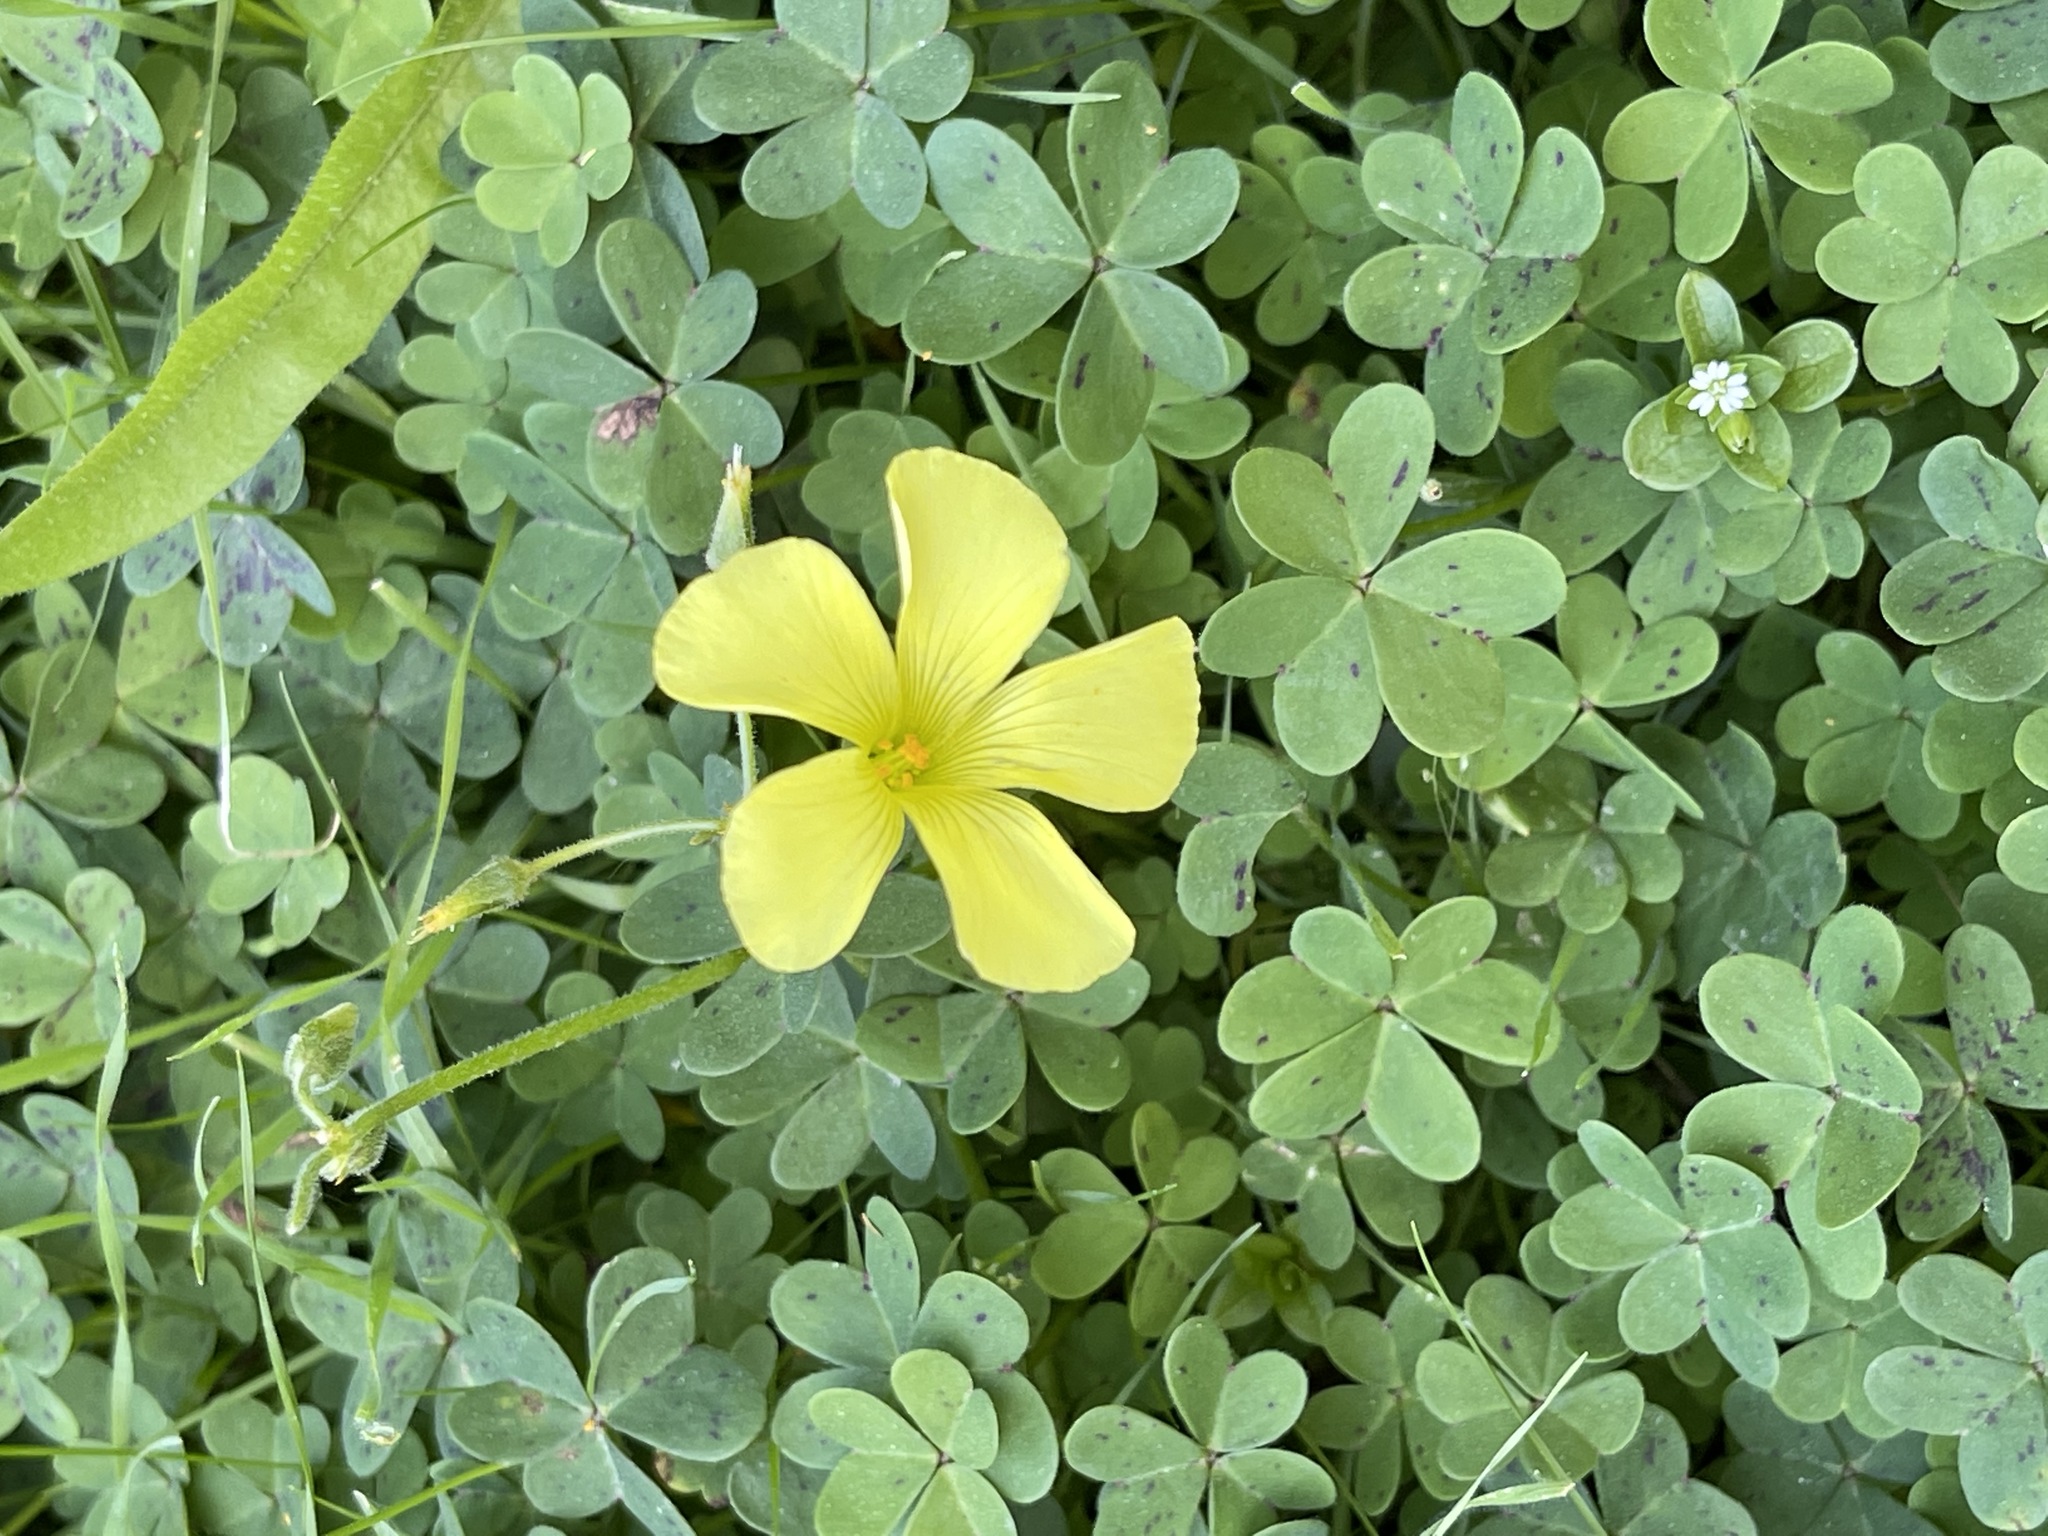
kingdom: Plantae
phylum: Tracheophyta
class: Magnoliopsida
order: Oxalidales
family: Oxalidaceae
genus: Oxalis
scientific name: Oxalis pes-caprae
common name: Bermuda-buttercup
